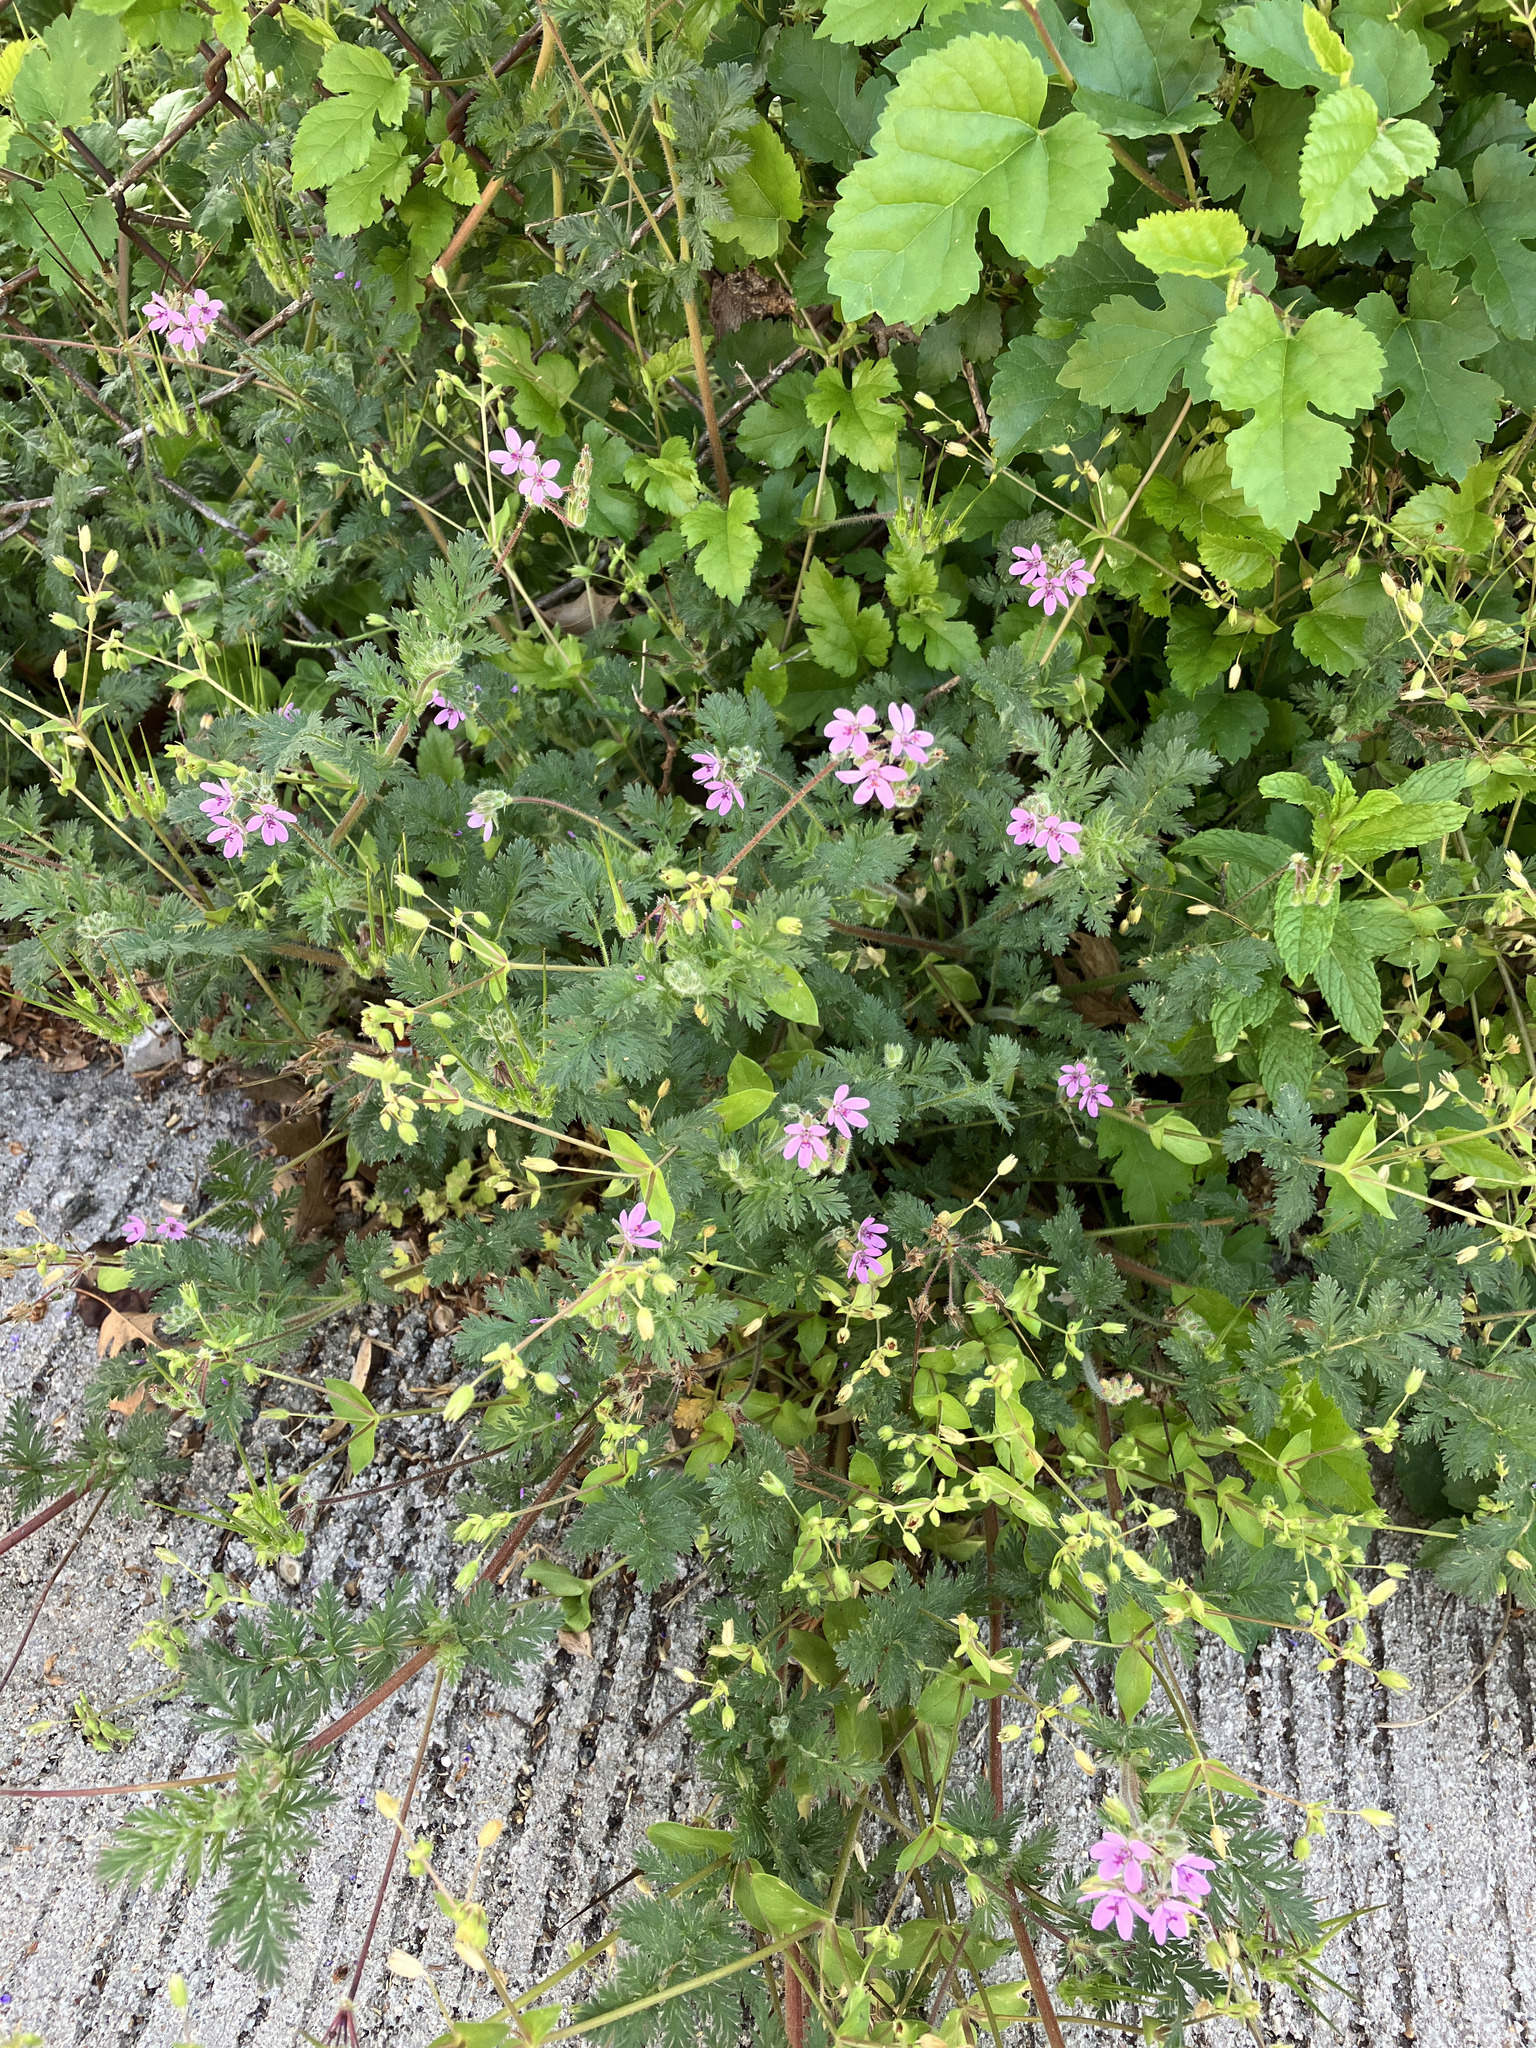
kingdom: Plantae
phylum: Tracheophyta
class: Magnoliopsida
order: Geraniales
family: Geraniaceae
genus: Erodium
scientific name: Erodium cicutarium
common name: Common stork's-bill
